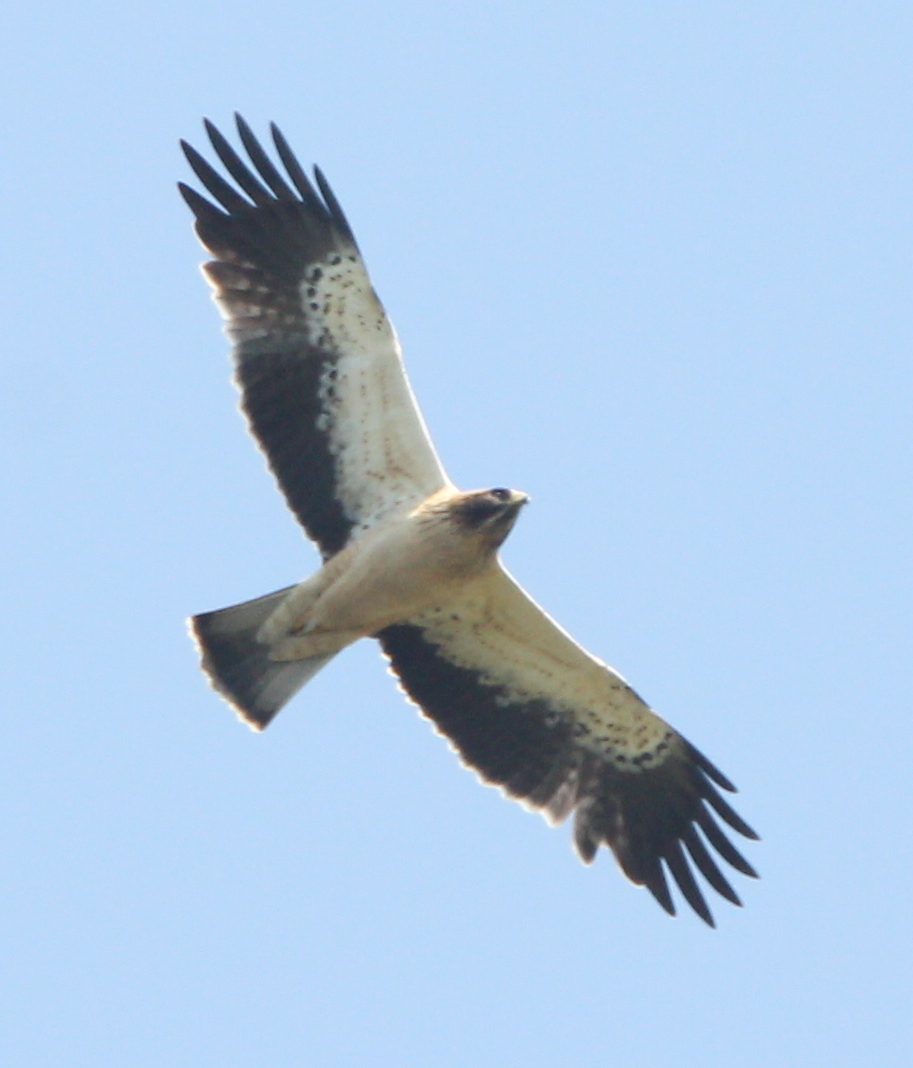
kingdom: Animalia
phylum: Chordata
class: Aves
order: Accipitriformes
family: Accipitridae
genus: Hieraaetus
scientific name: Hieraaetus pennatus
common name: Booted eagle
